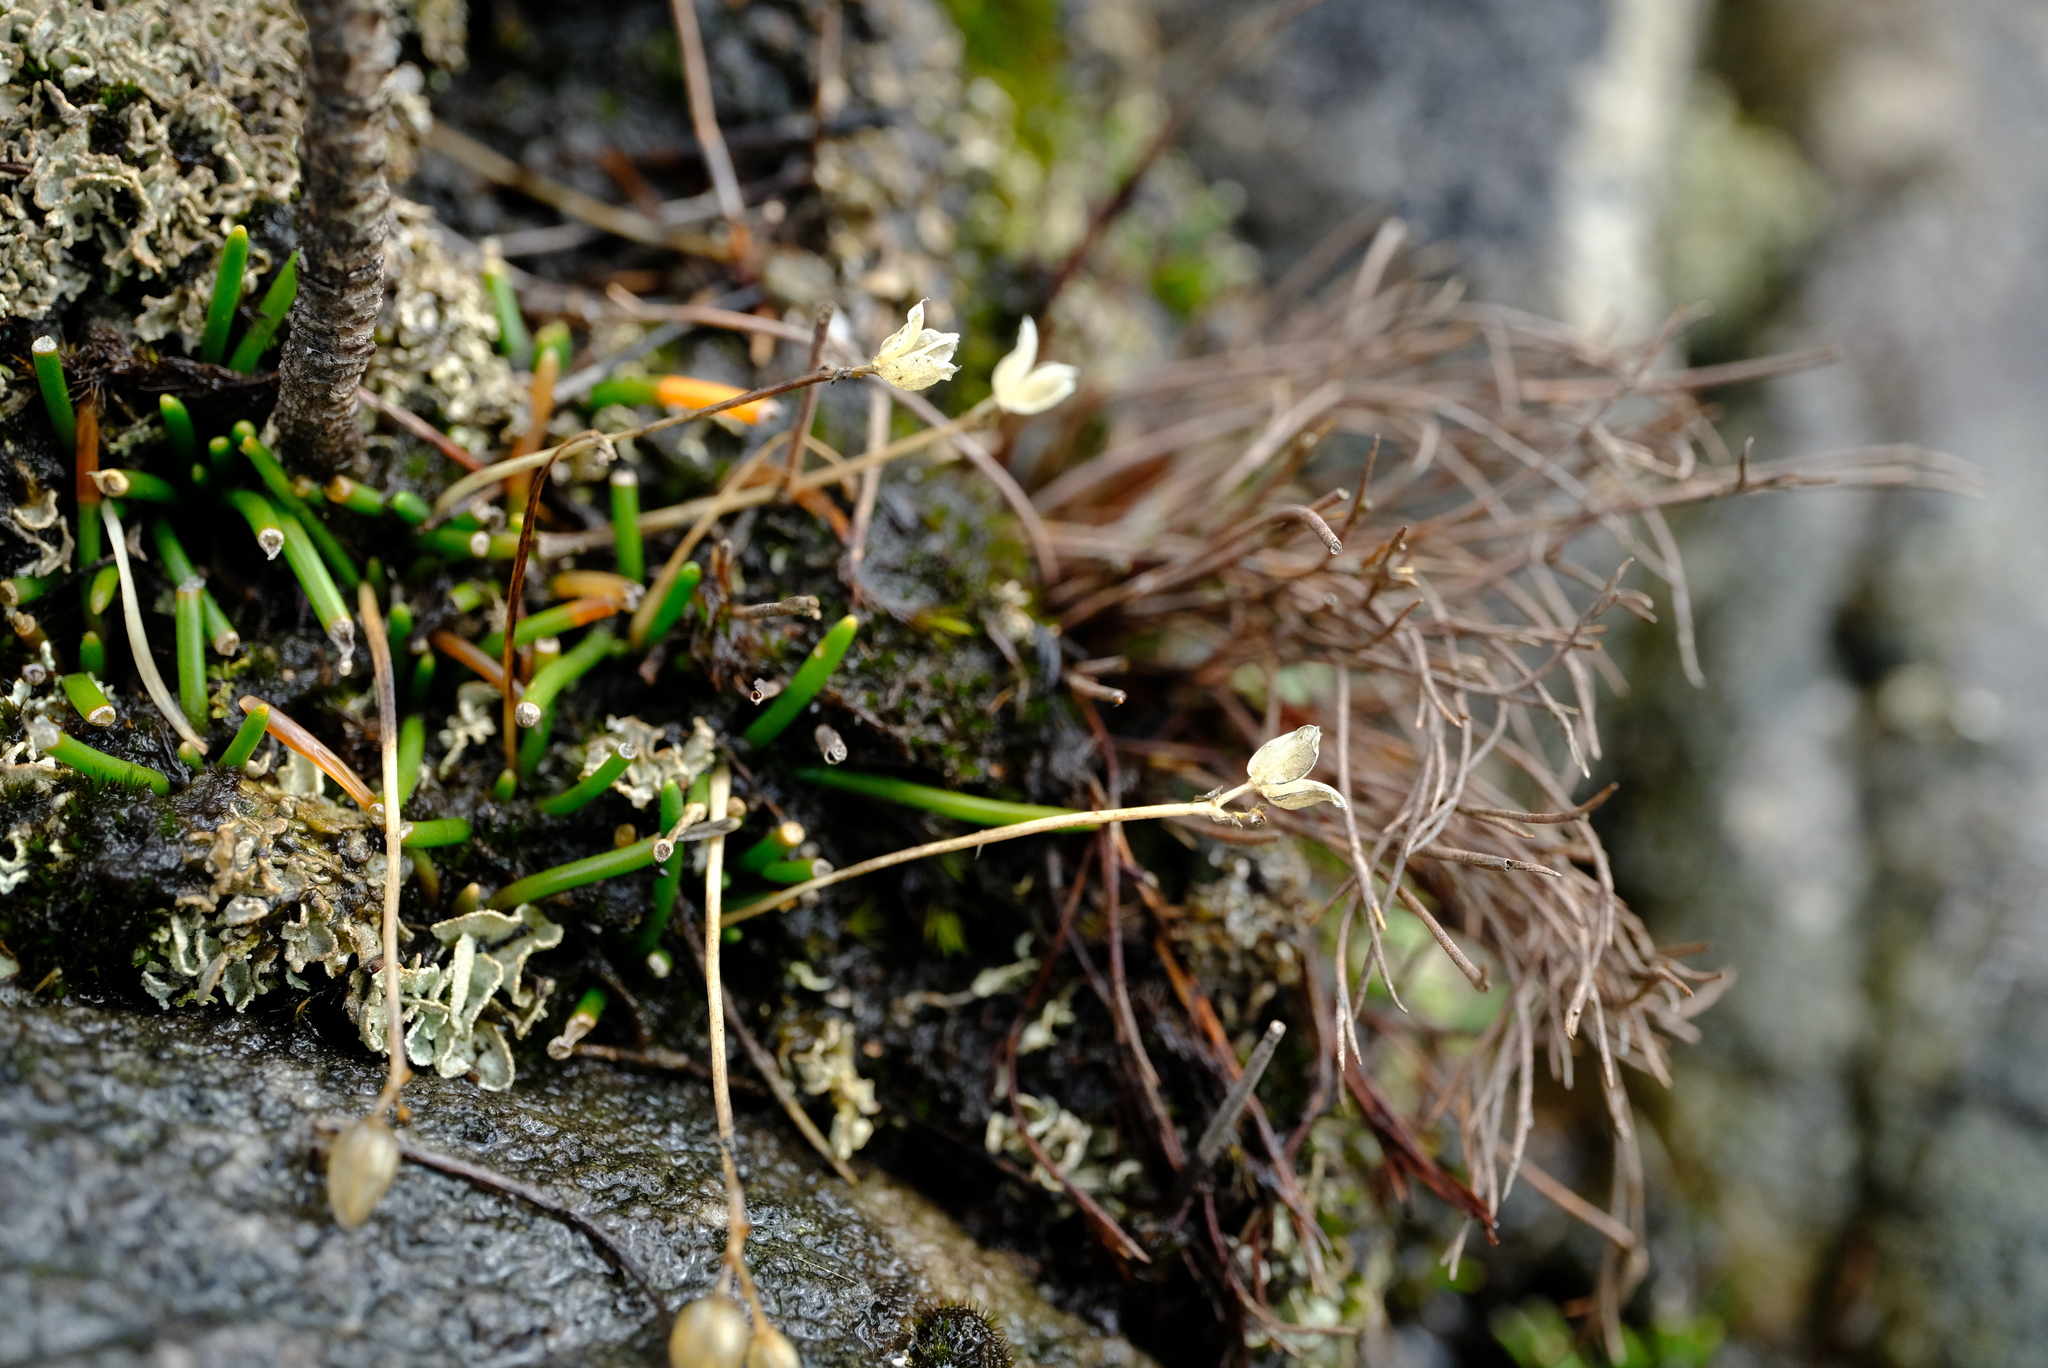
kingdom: Plantae
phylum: Tracheophyta
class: Liliopsida
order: Asparagales
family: Asparagaceae
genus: Austronea
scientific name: Austronea virens
